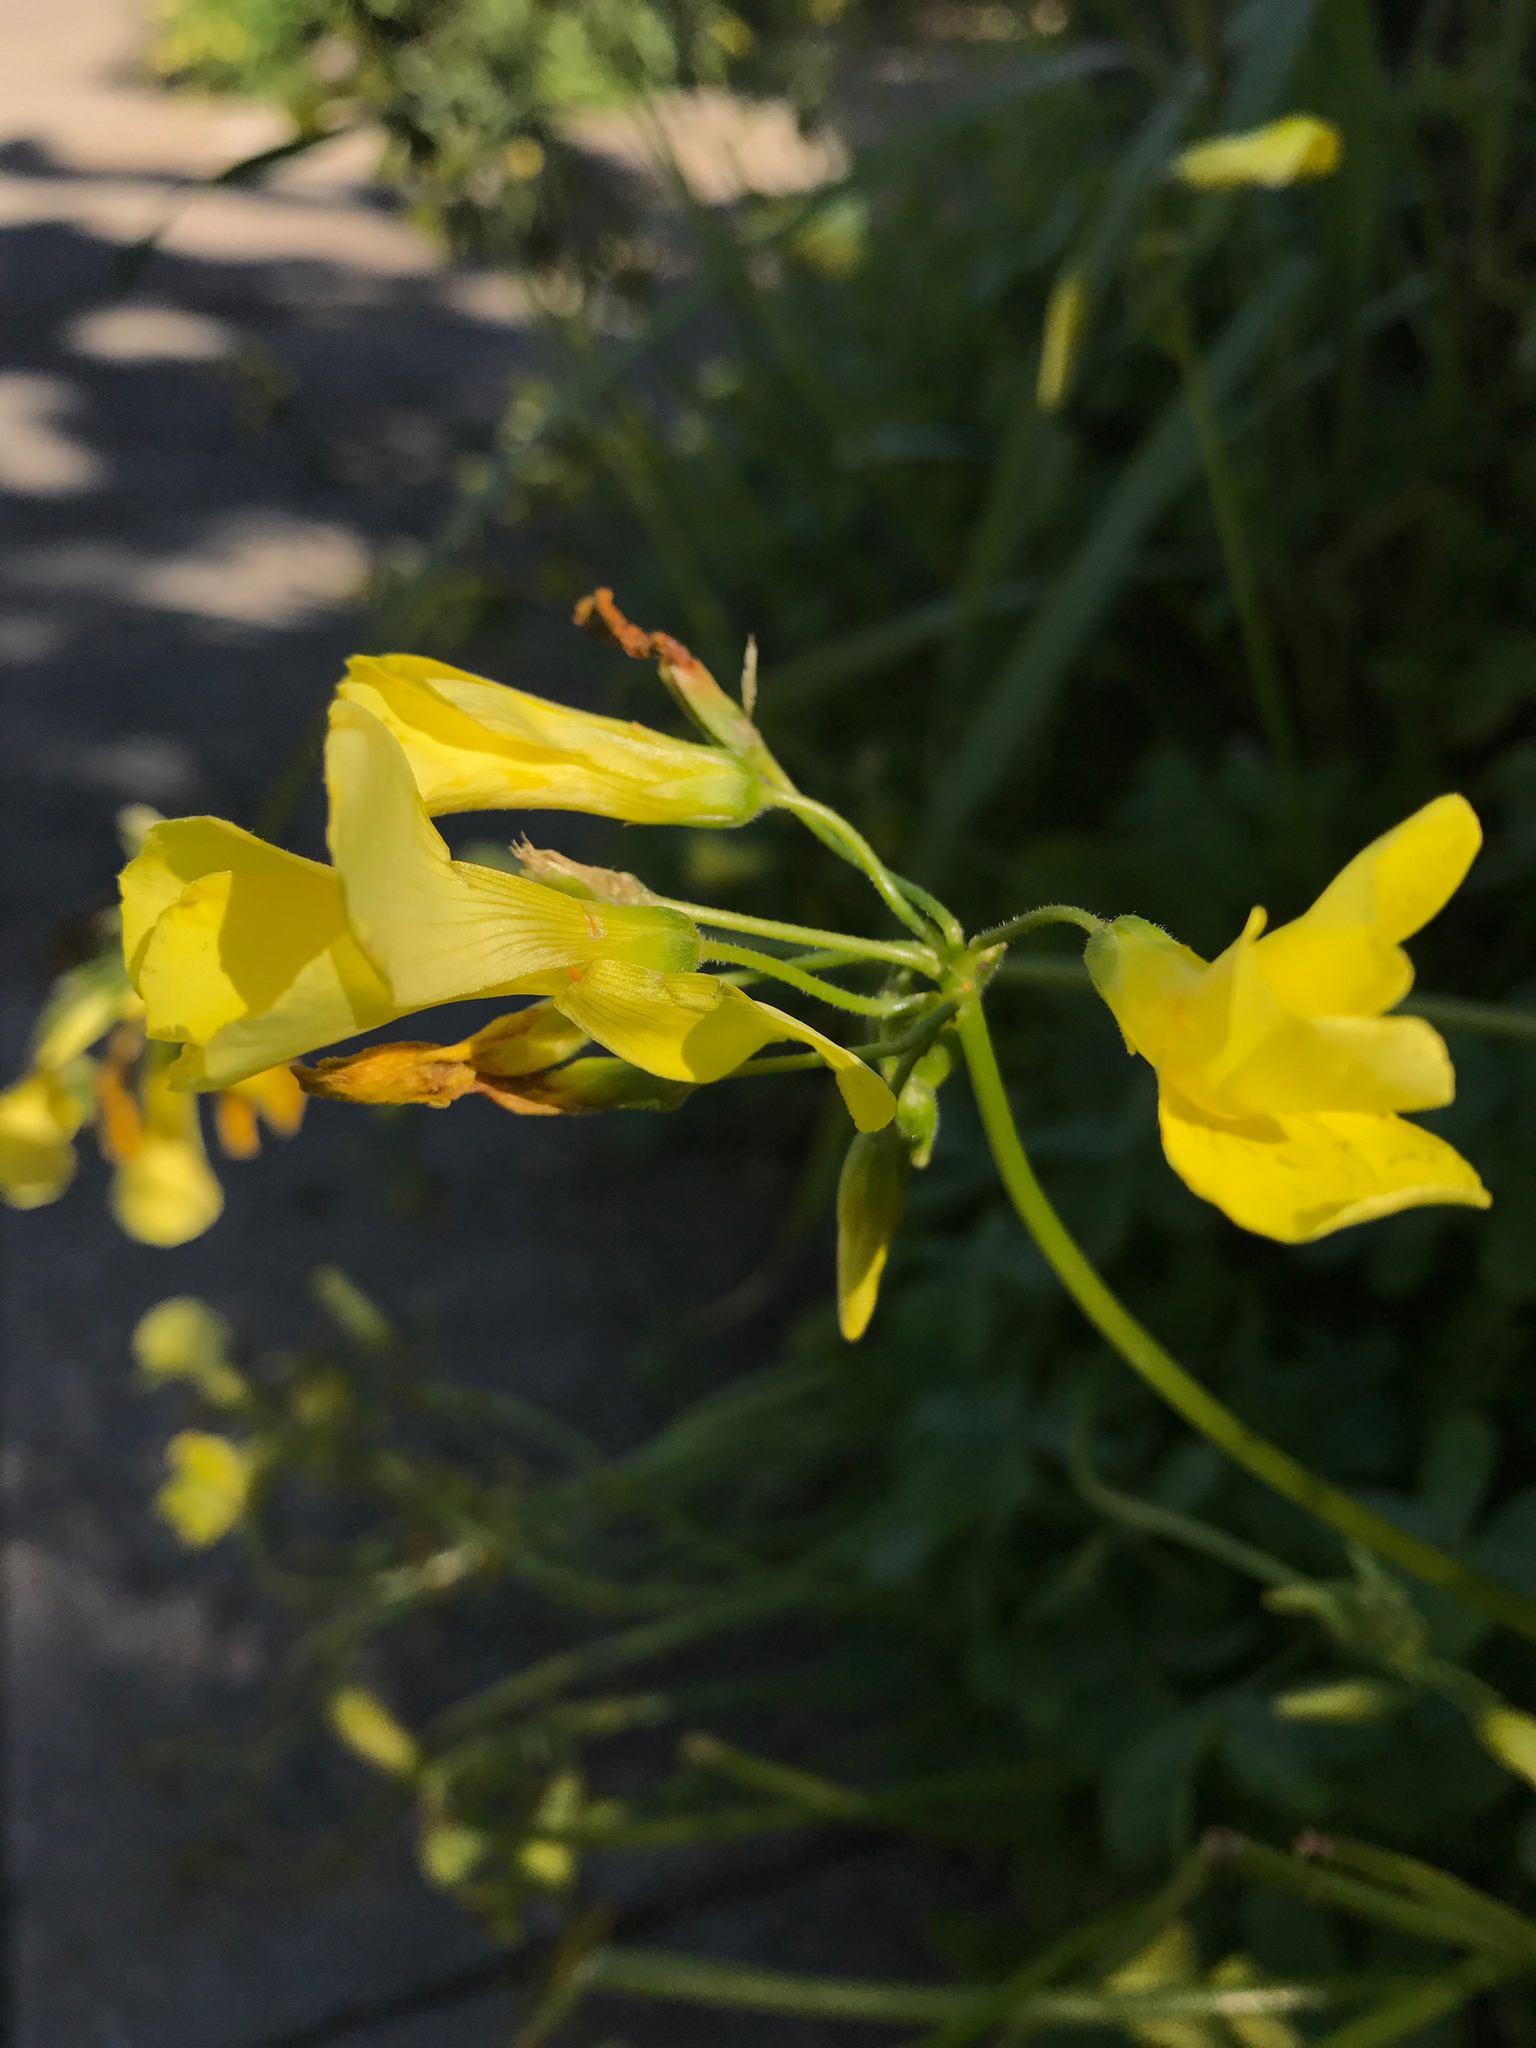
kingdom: Plantae
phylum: Tracheophyta
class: Magnoliopsida
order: Oxalidales
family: Oxalidaceae
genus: Oxalis
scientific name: Oxalis pes-caprae
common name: Bermuda-buttercup
